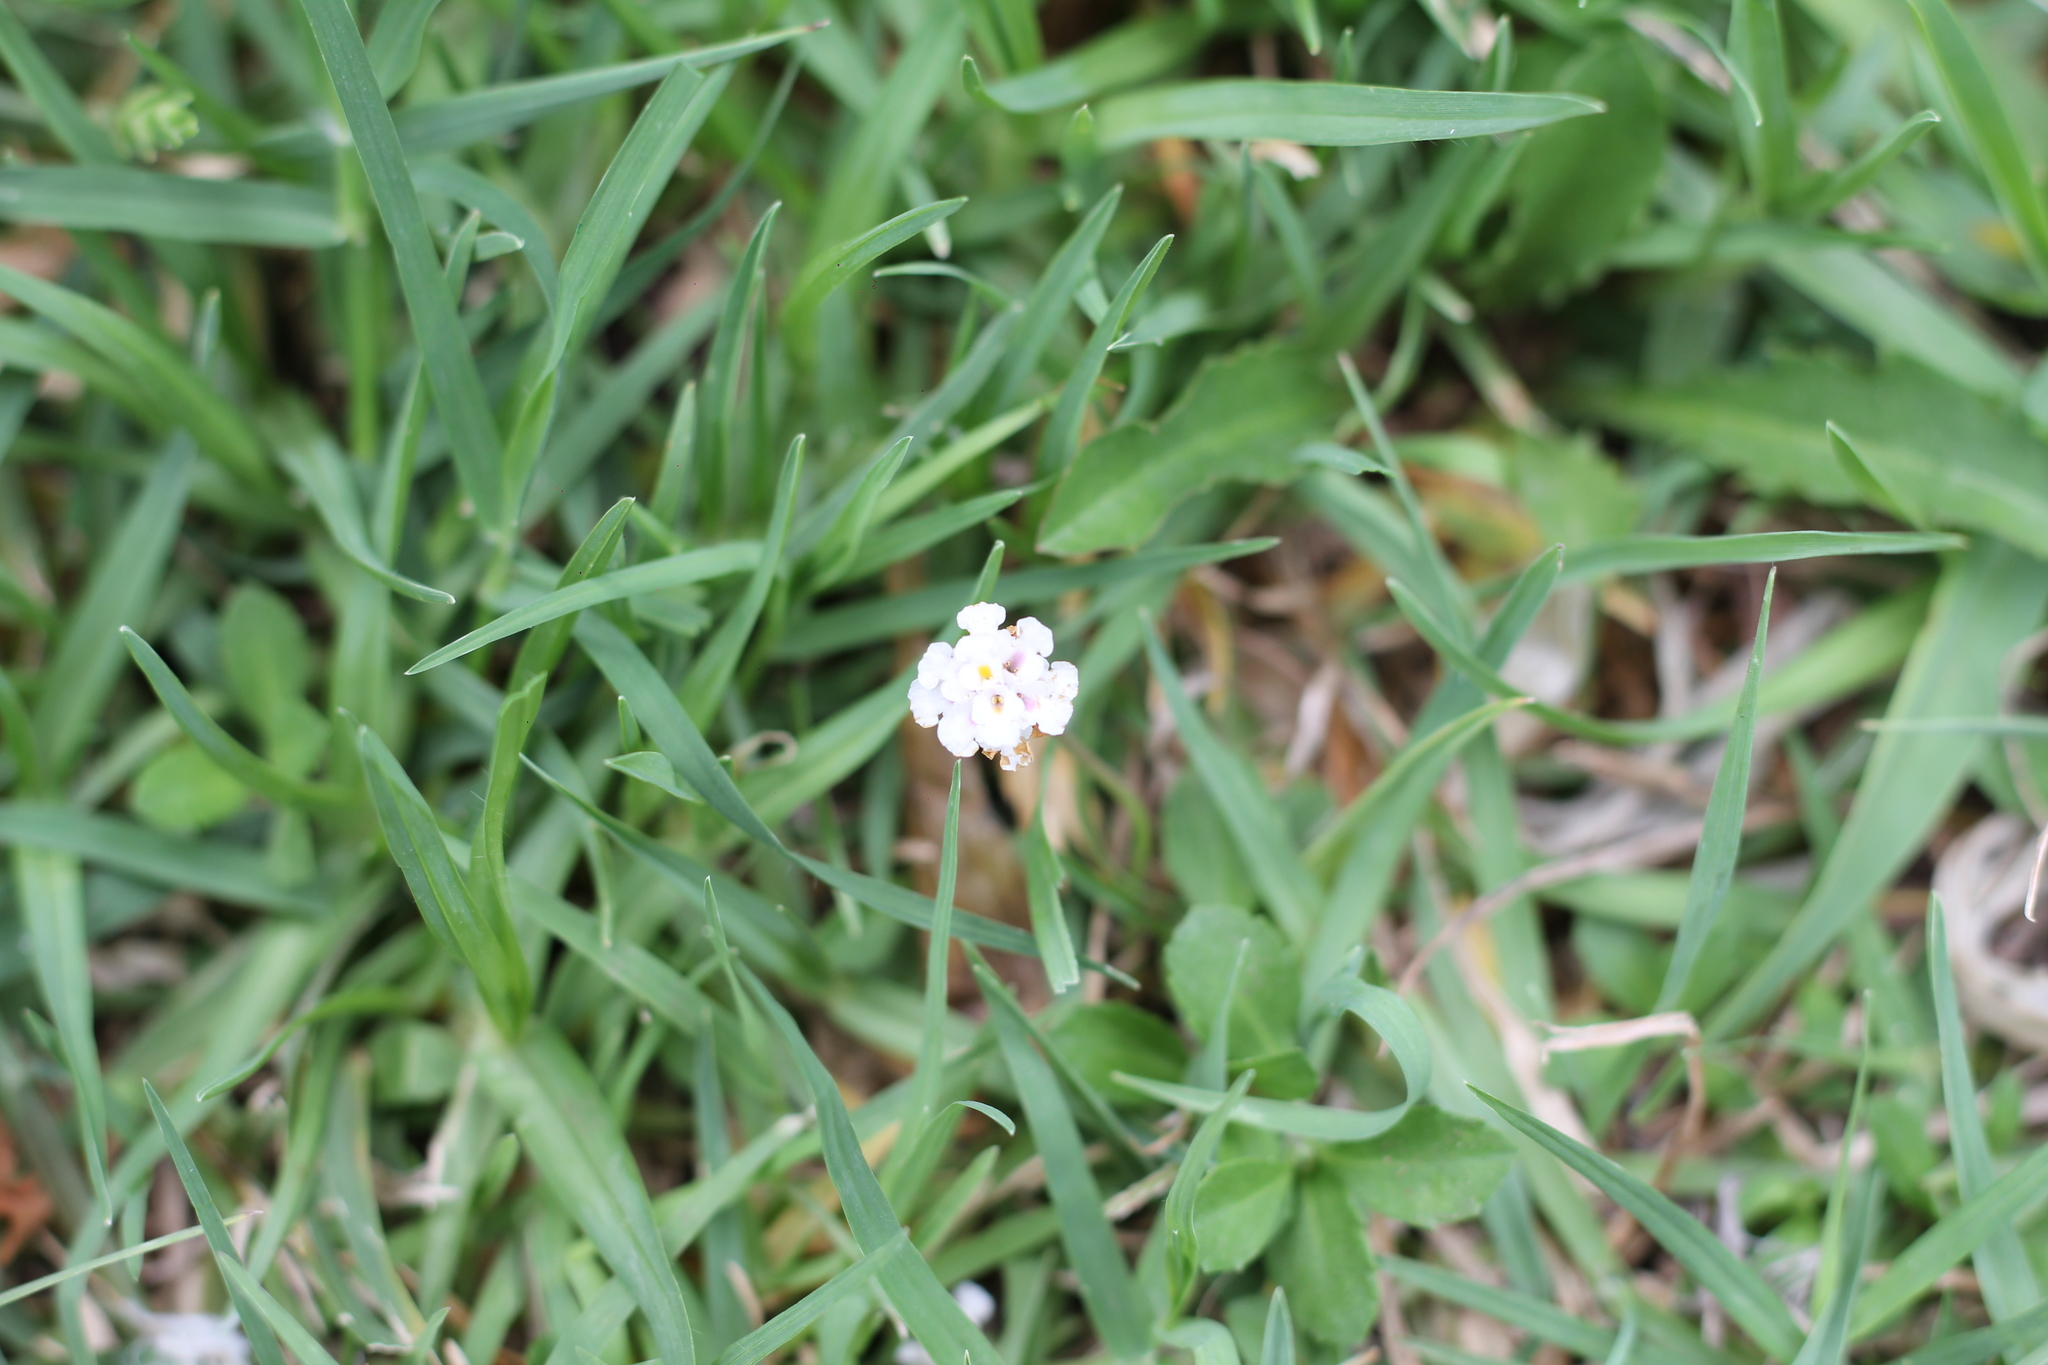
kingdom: Plantae
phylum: Tracheophyta
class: Magnoliopsida
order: Lamiales
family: Verbenaceae
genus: Phyla
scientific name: Phyla nodiflora
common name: Frogfruit
